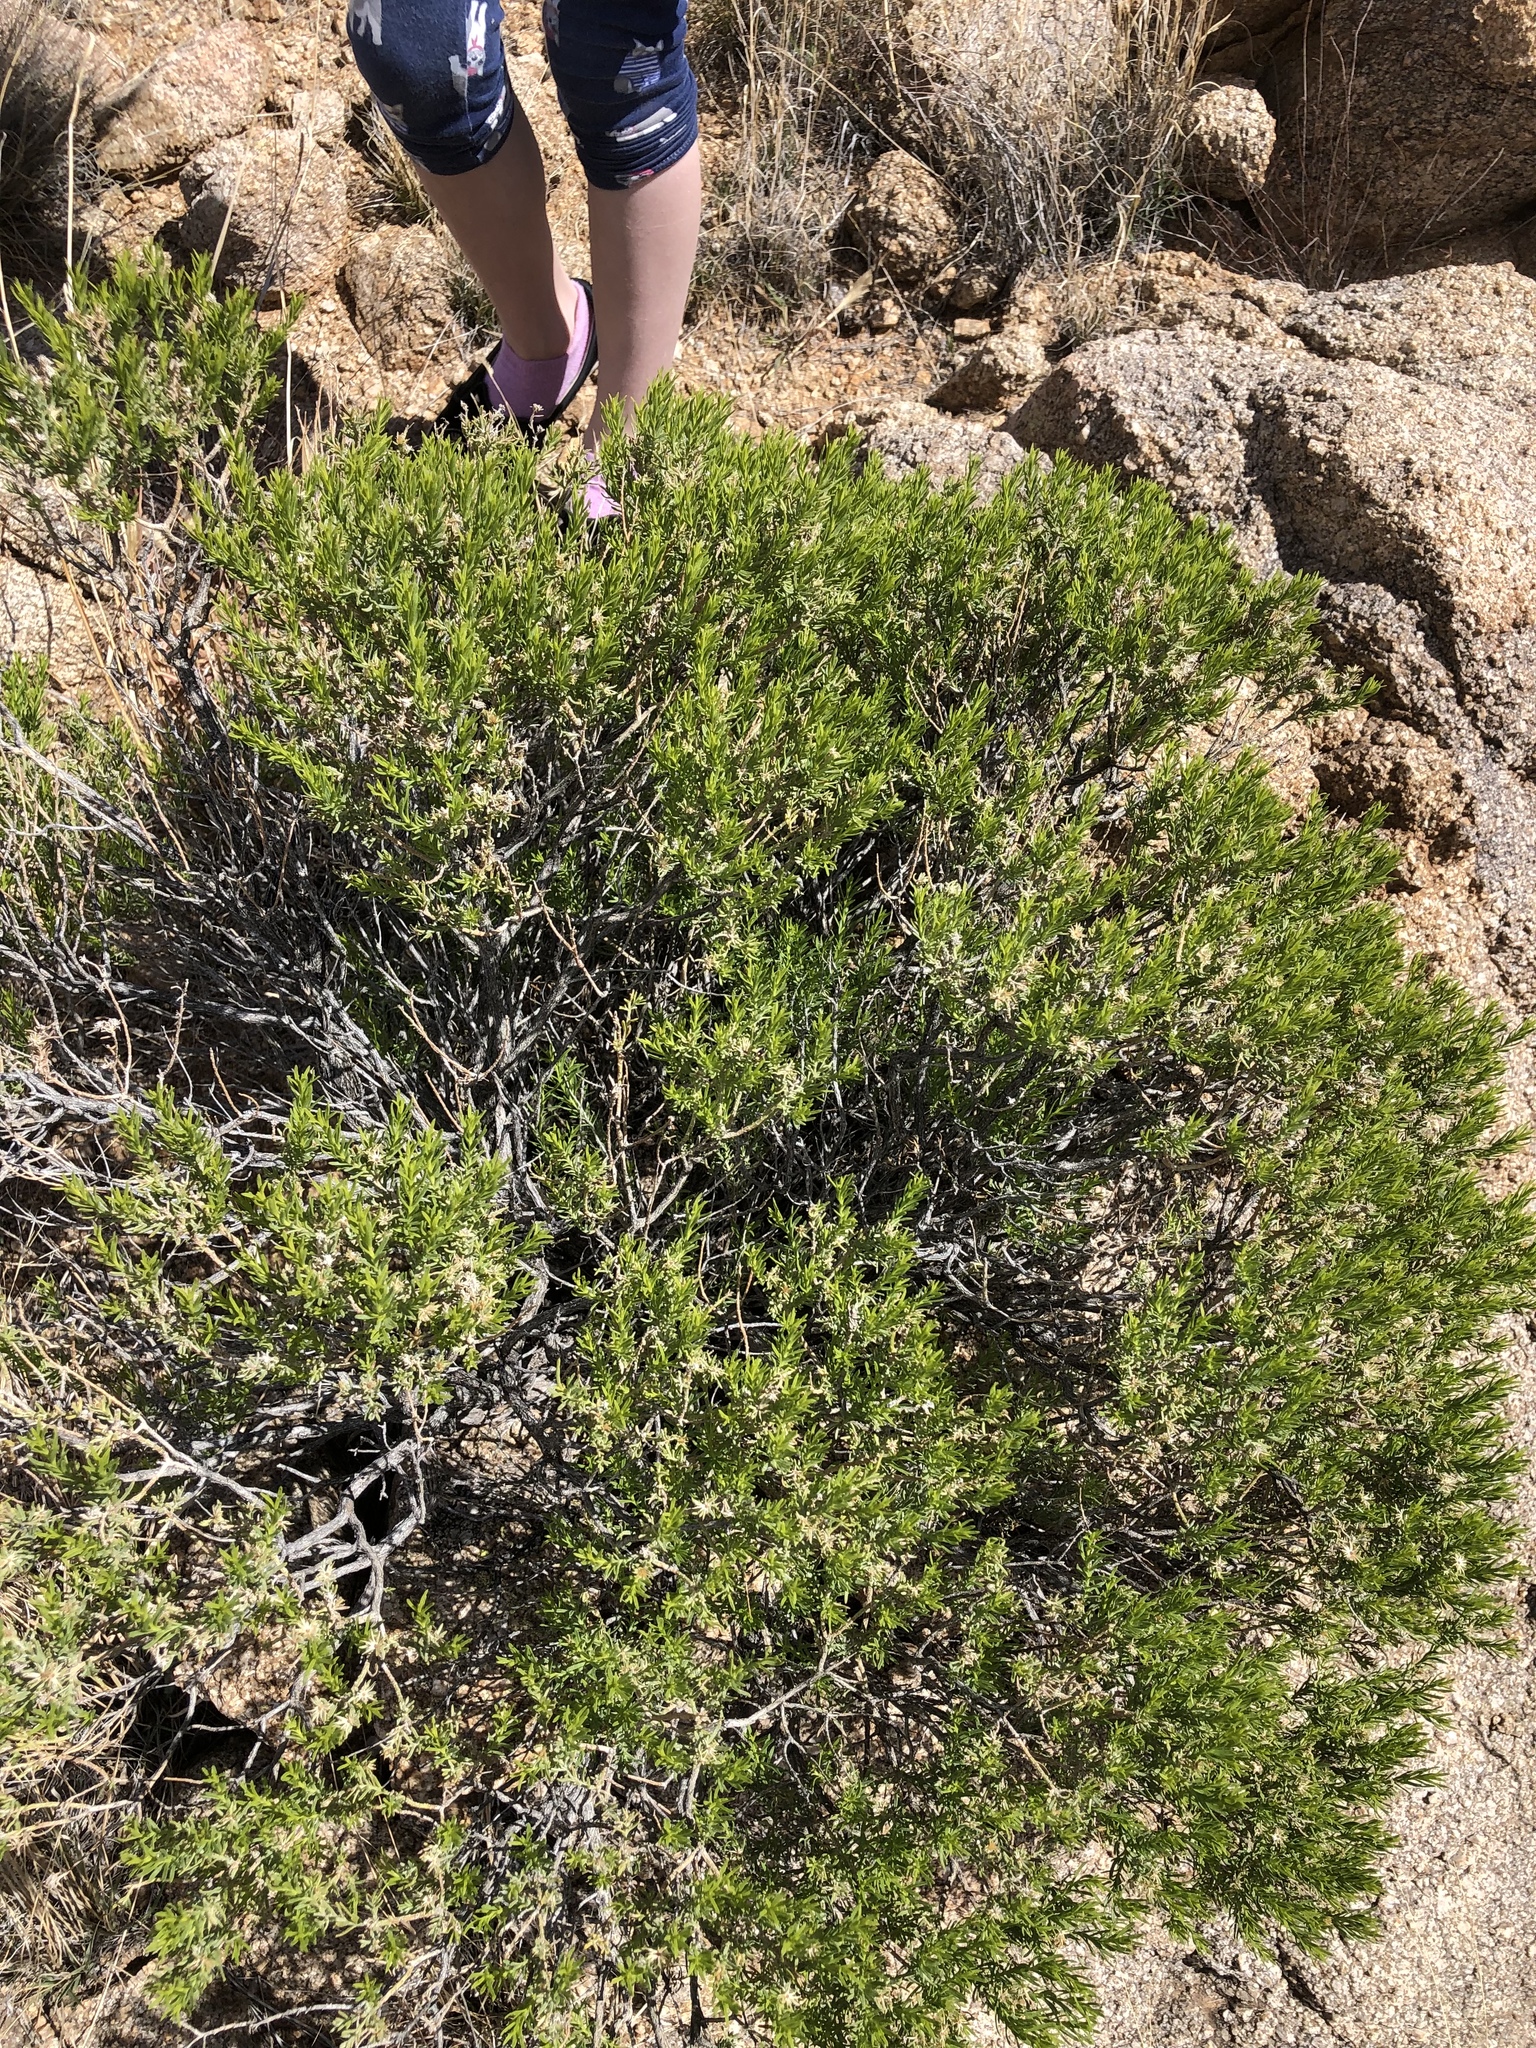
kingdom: Plantae
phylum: Tracheophyta
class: Magnoliopsida
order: Asterales
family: Asteraceae
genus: Ericameria
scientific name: Ericameria laricifolia
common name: Turpentine-bush
